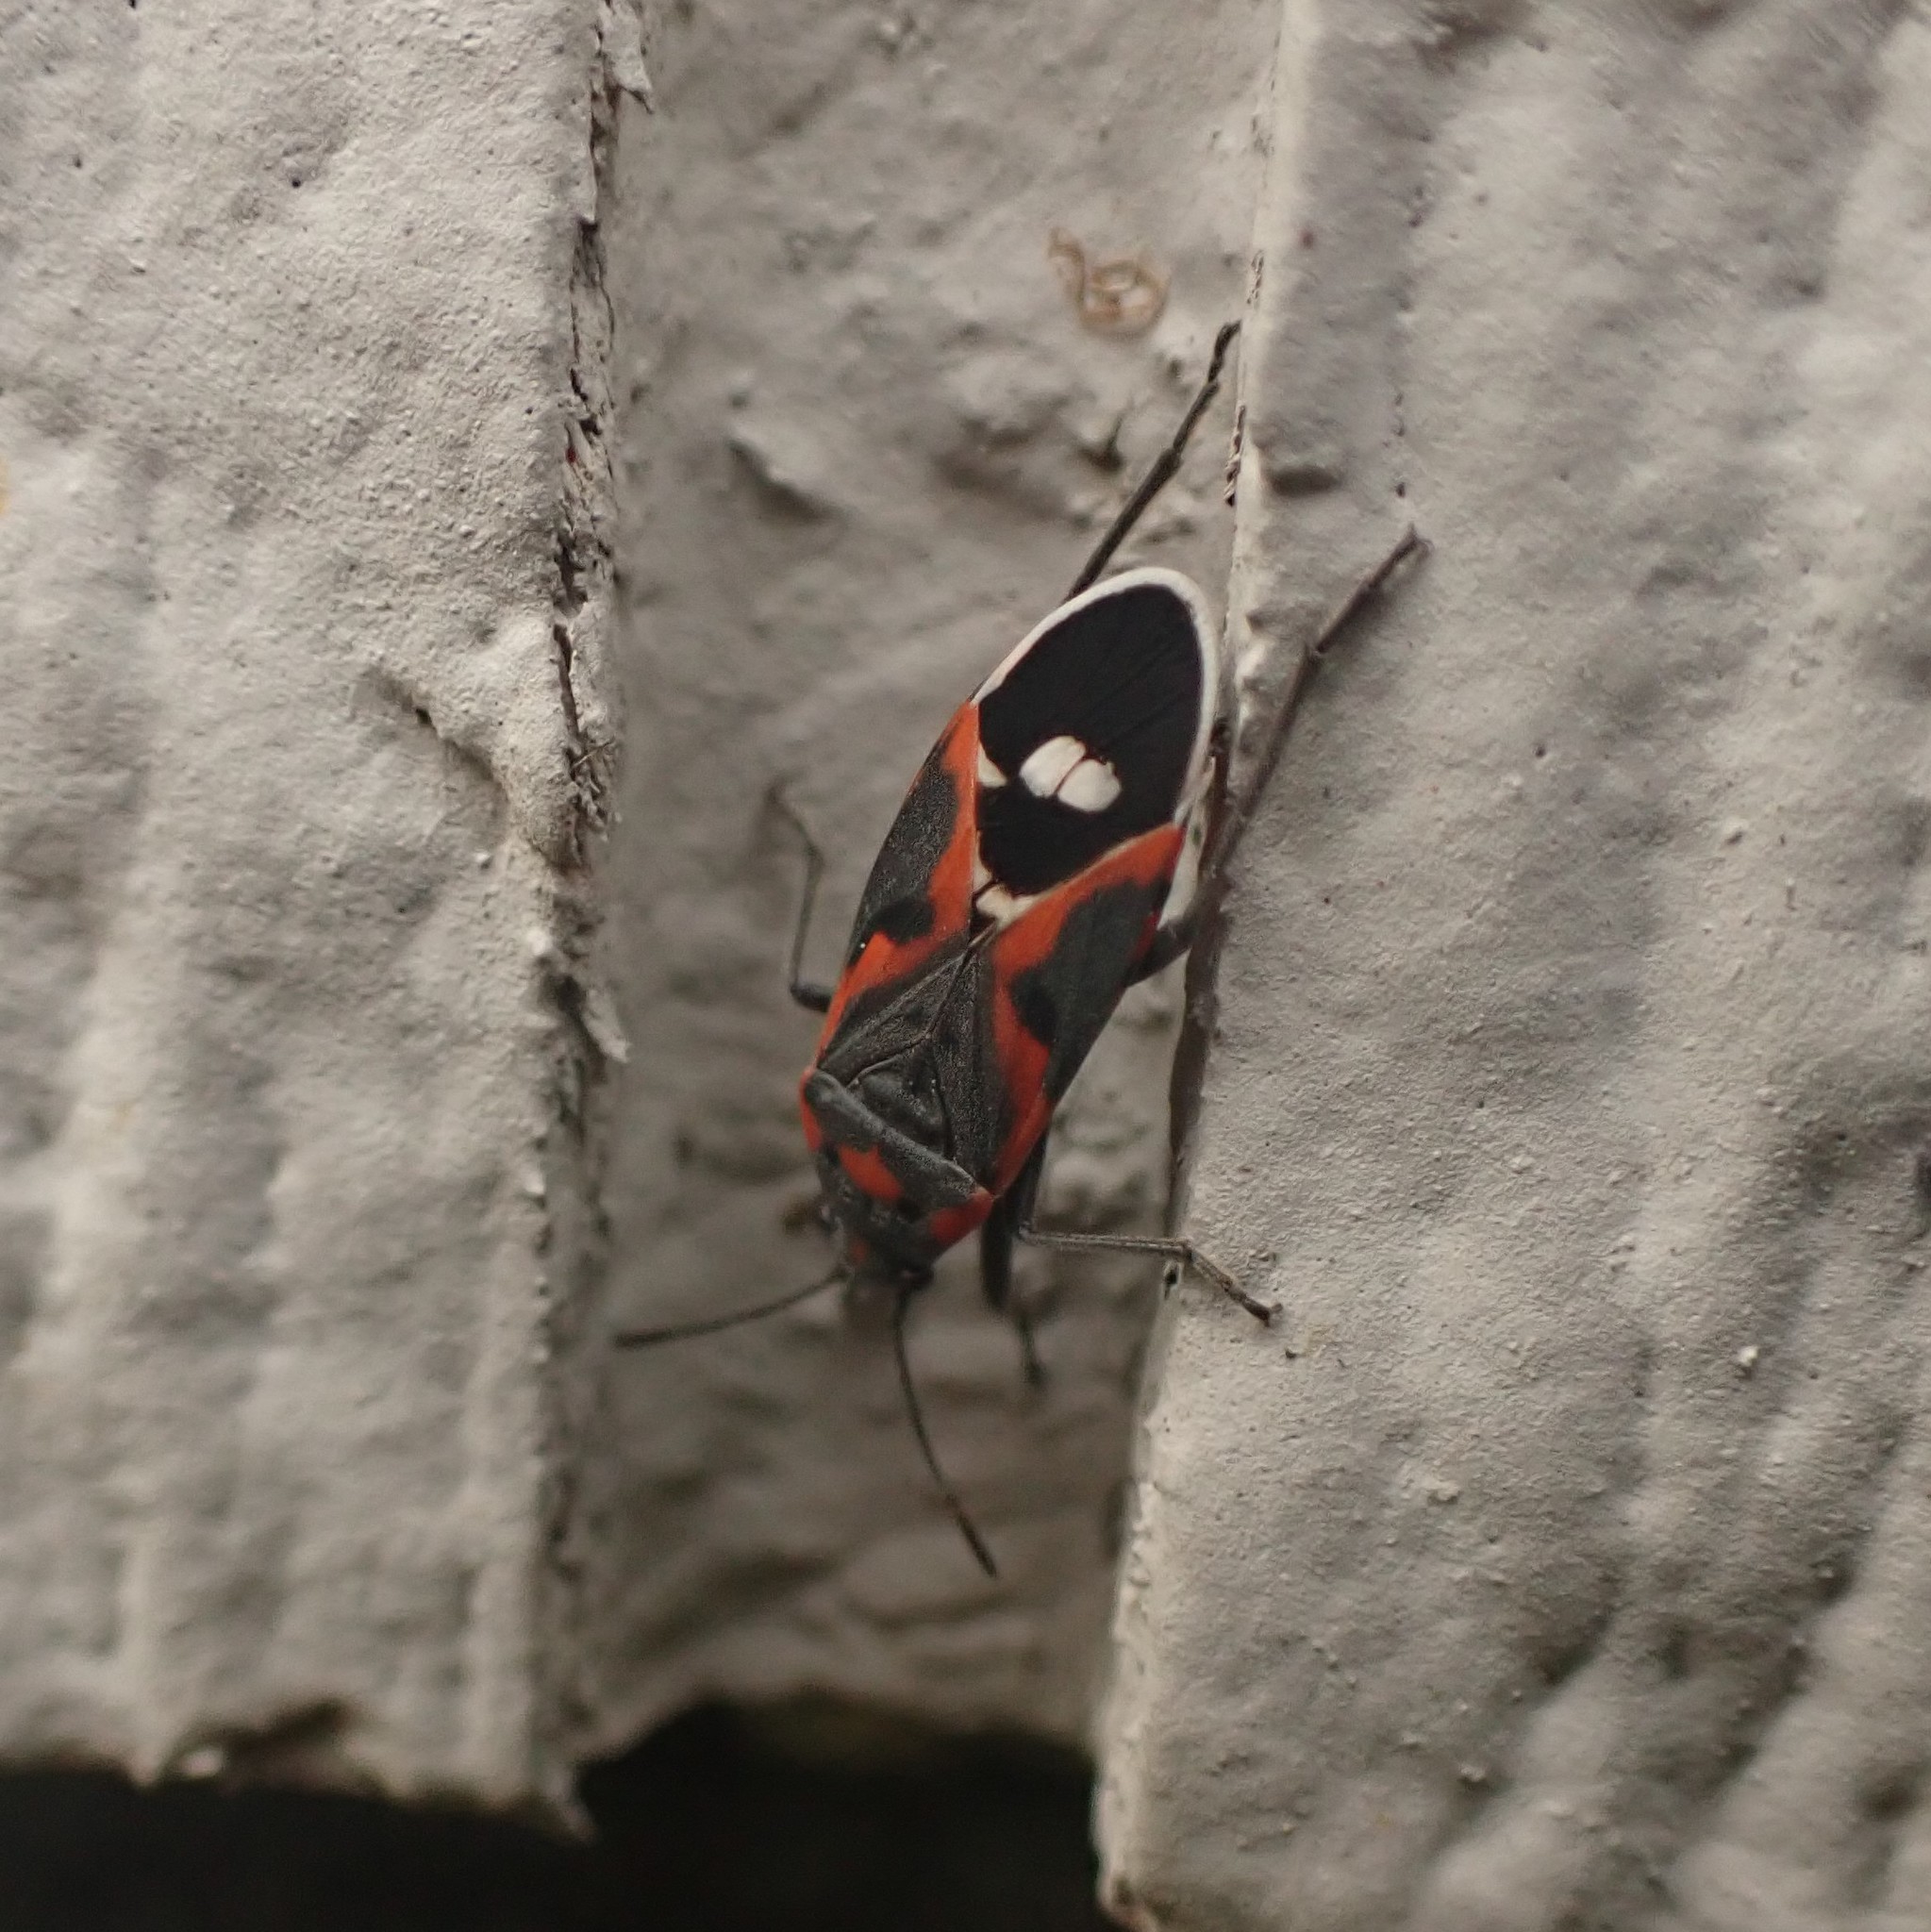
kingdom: Animalia
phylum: Arthropoda
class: Insecta
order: Hemiptera
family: Lygaeidae
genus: Lygaeus
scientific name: Lygaeus kalmii
